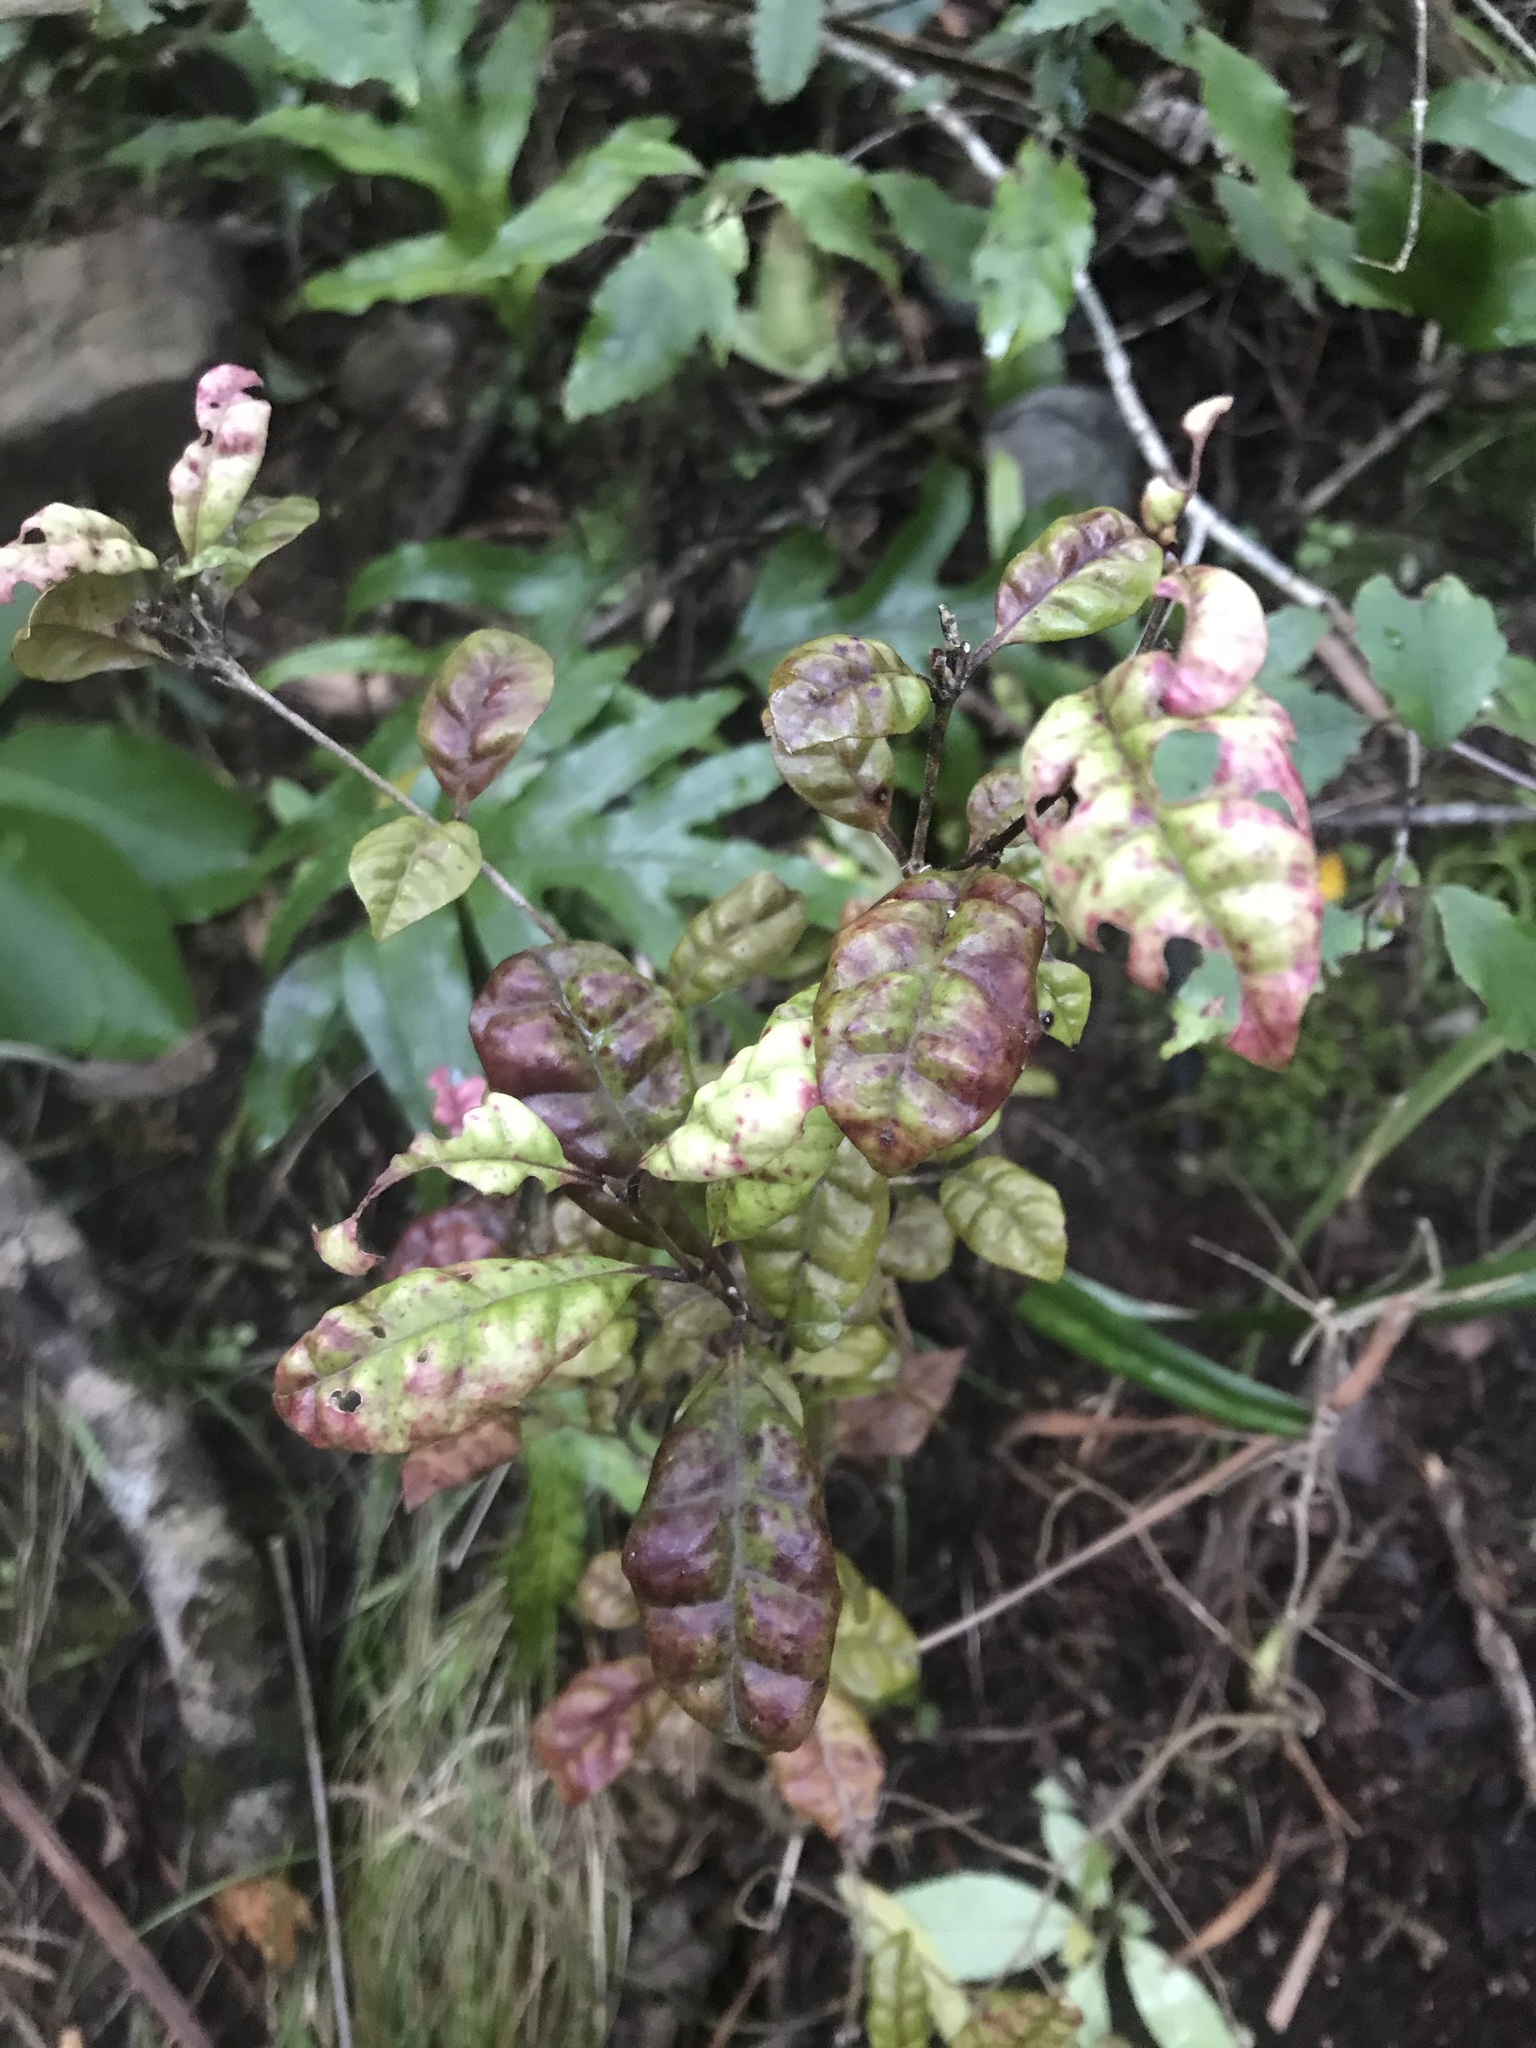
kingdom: Plantae
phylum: Tracheophyta
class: Magnoliopsida
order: Myrtales
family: Myrtaceae
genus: Lophomyrtus
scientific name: Lophomyrtus bullata
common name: Rama rama
